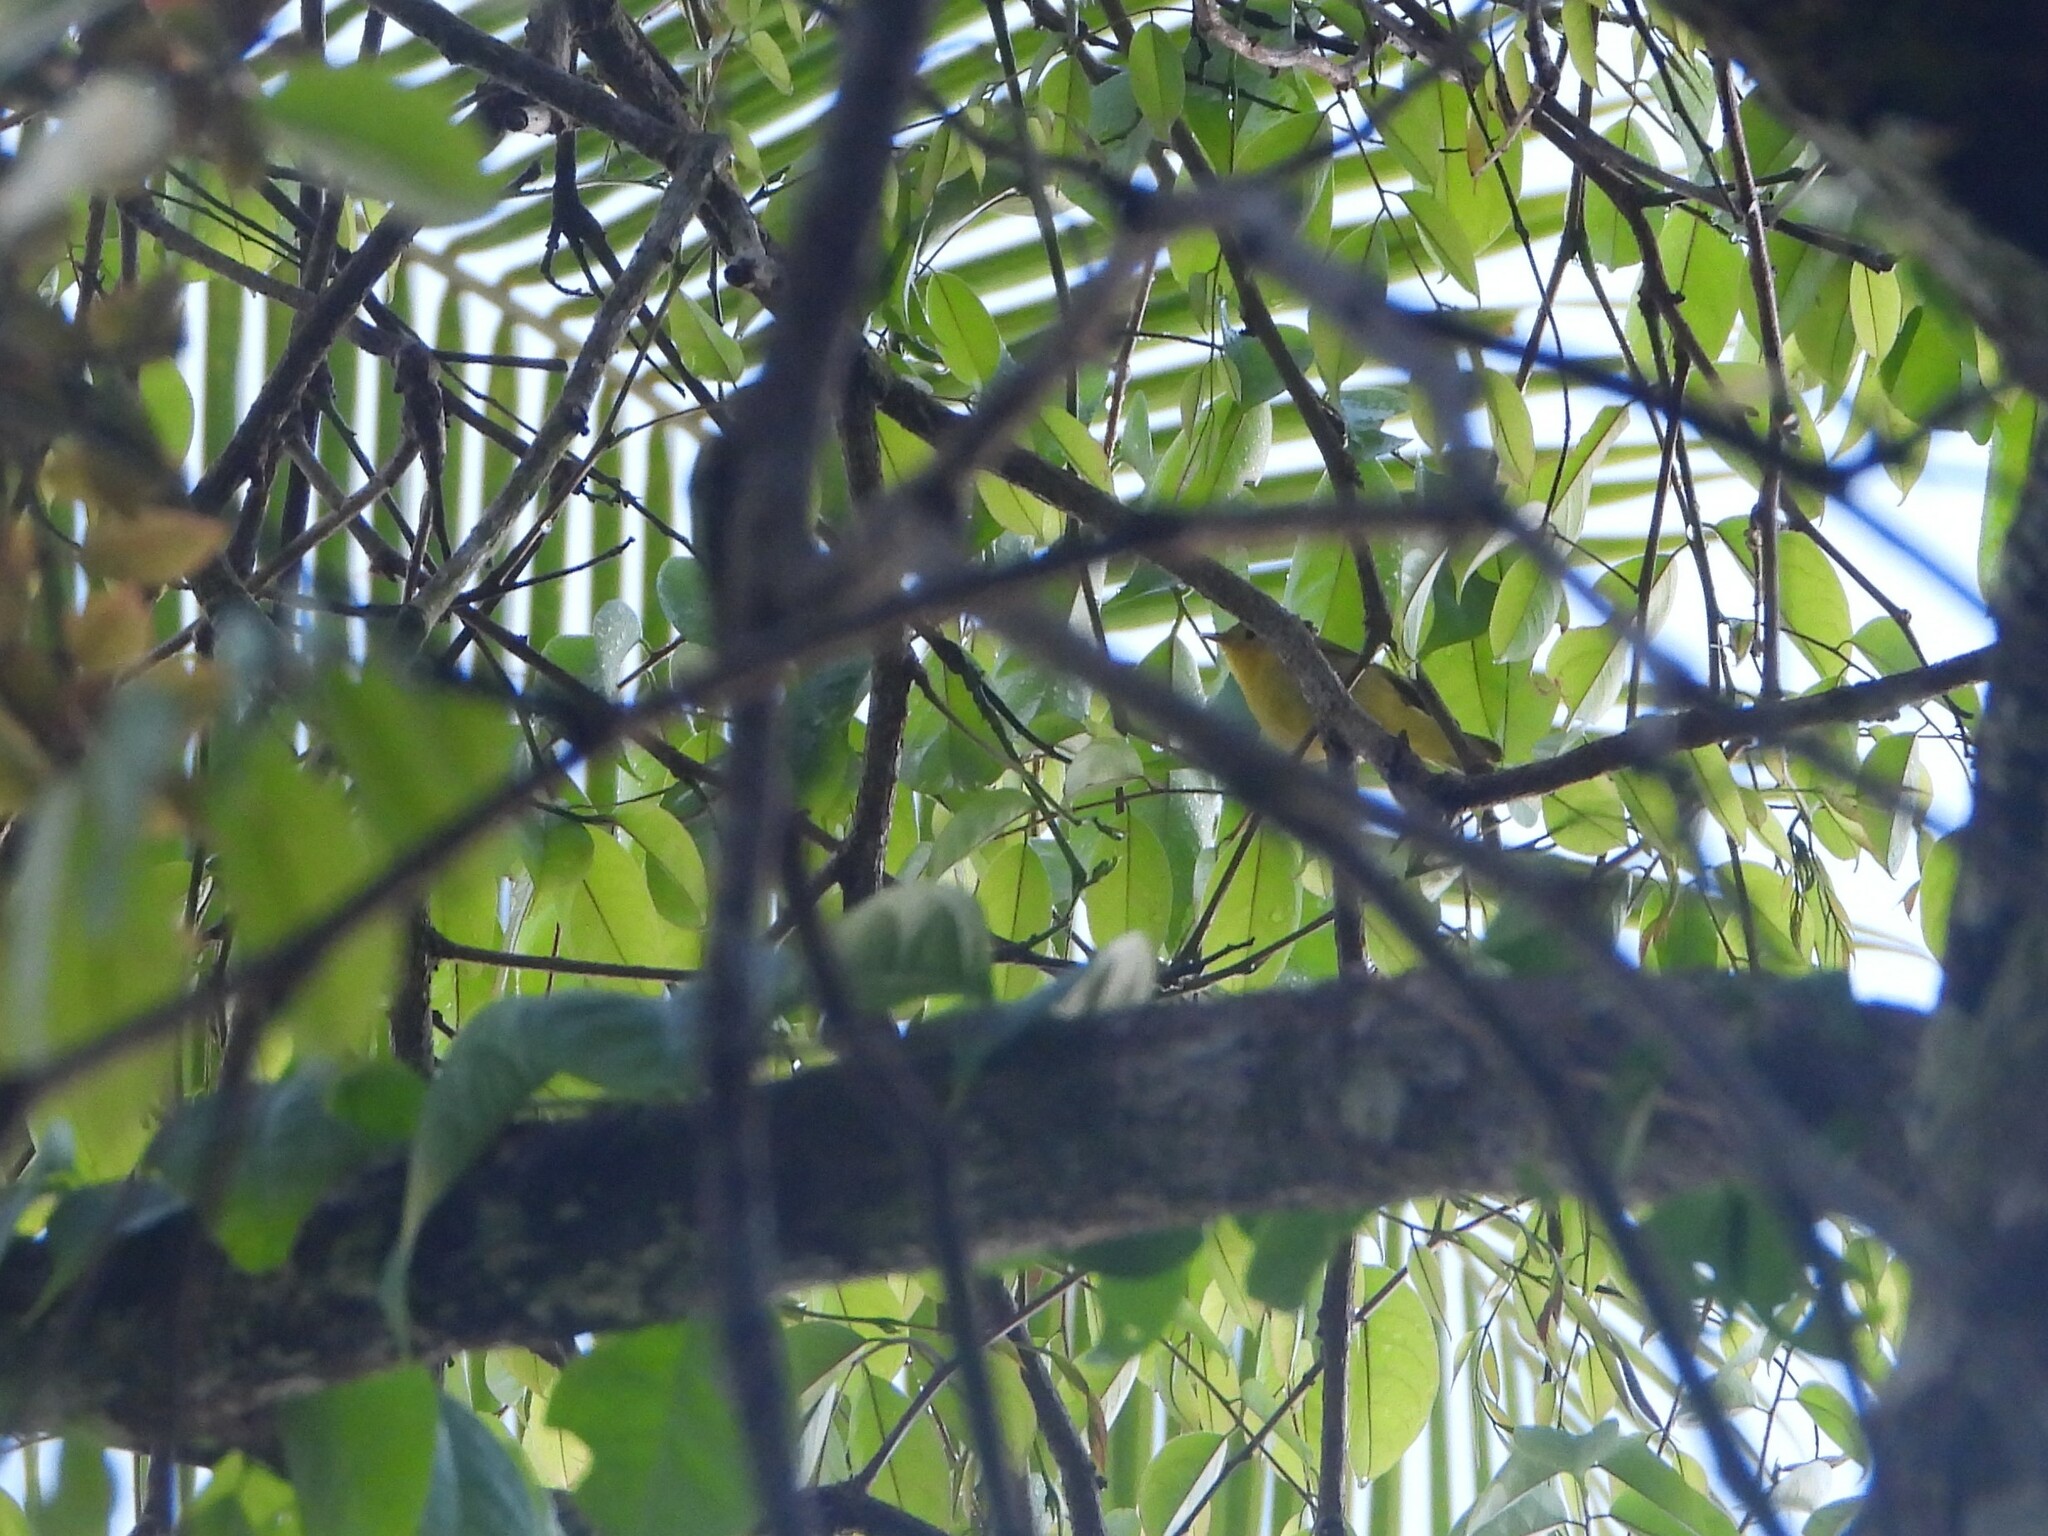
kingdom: Animalia
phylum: Chordata
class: Aves
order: Passeriformes
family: Parulidae
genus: Setophaga
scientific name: Setophaga petechia
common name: Yellow warbler
